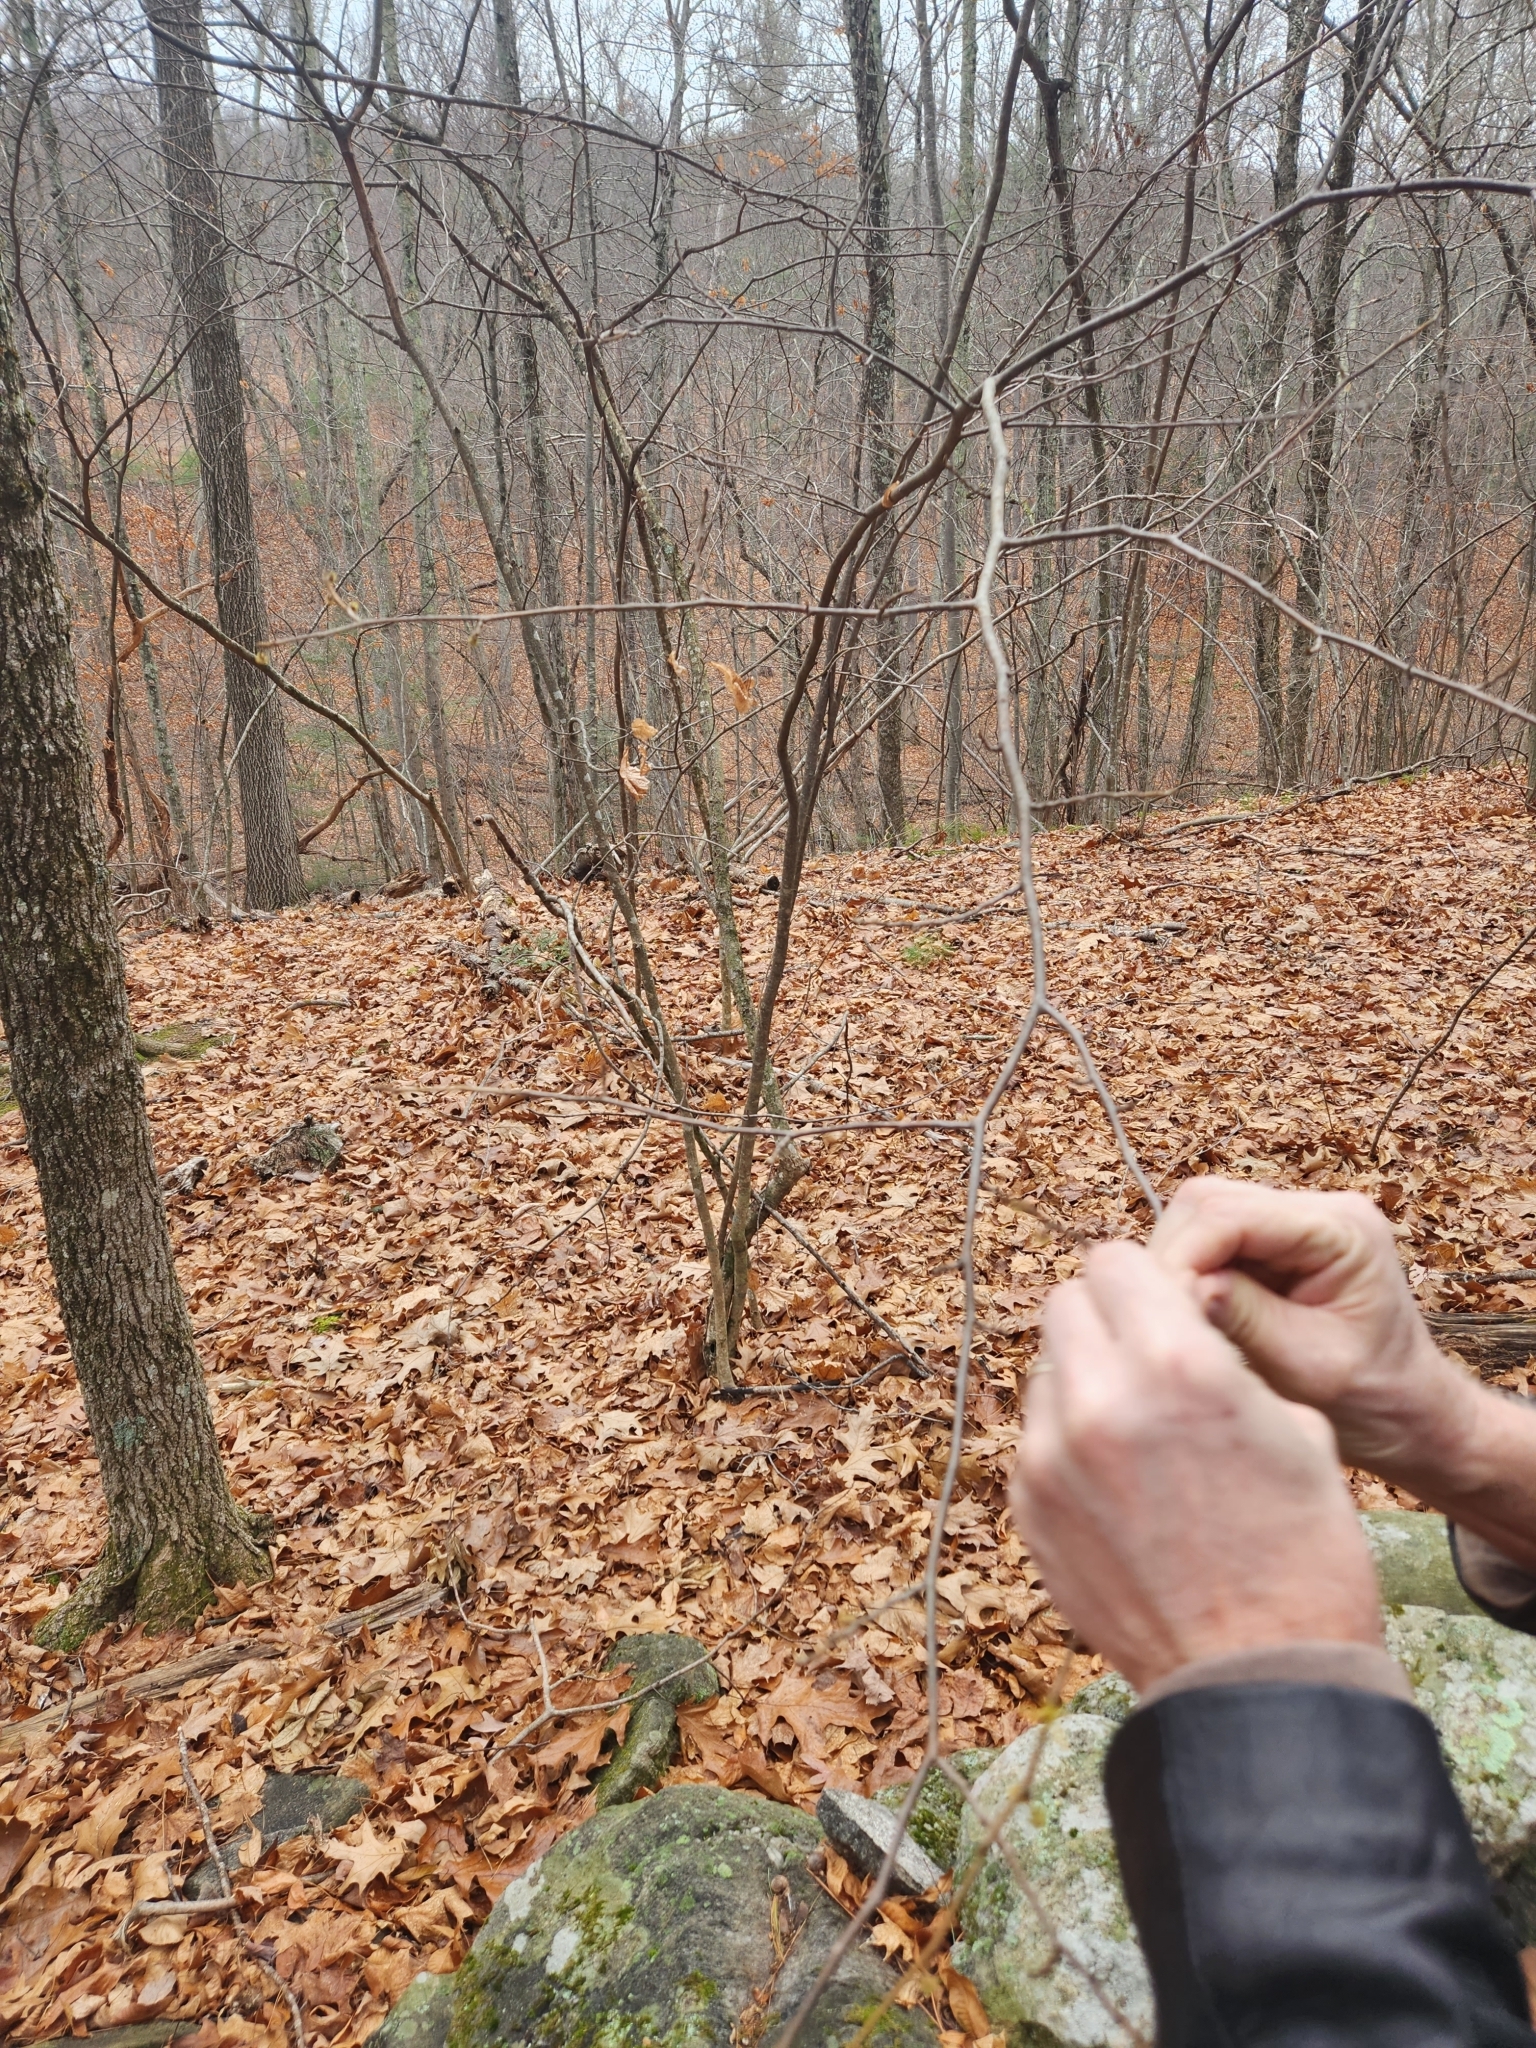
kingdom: Plantae
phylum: Tracheophyta
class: Magnoliopsida
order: Saxifragales
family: Hamamelidaceae
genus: Hamamelis
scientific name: Hamamelis virginiana
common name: Witch-hazel
